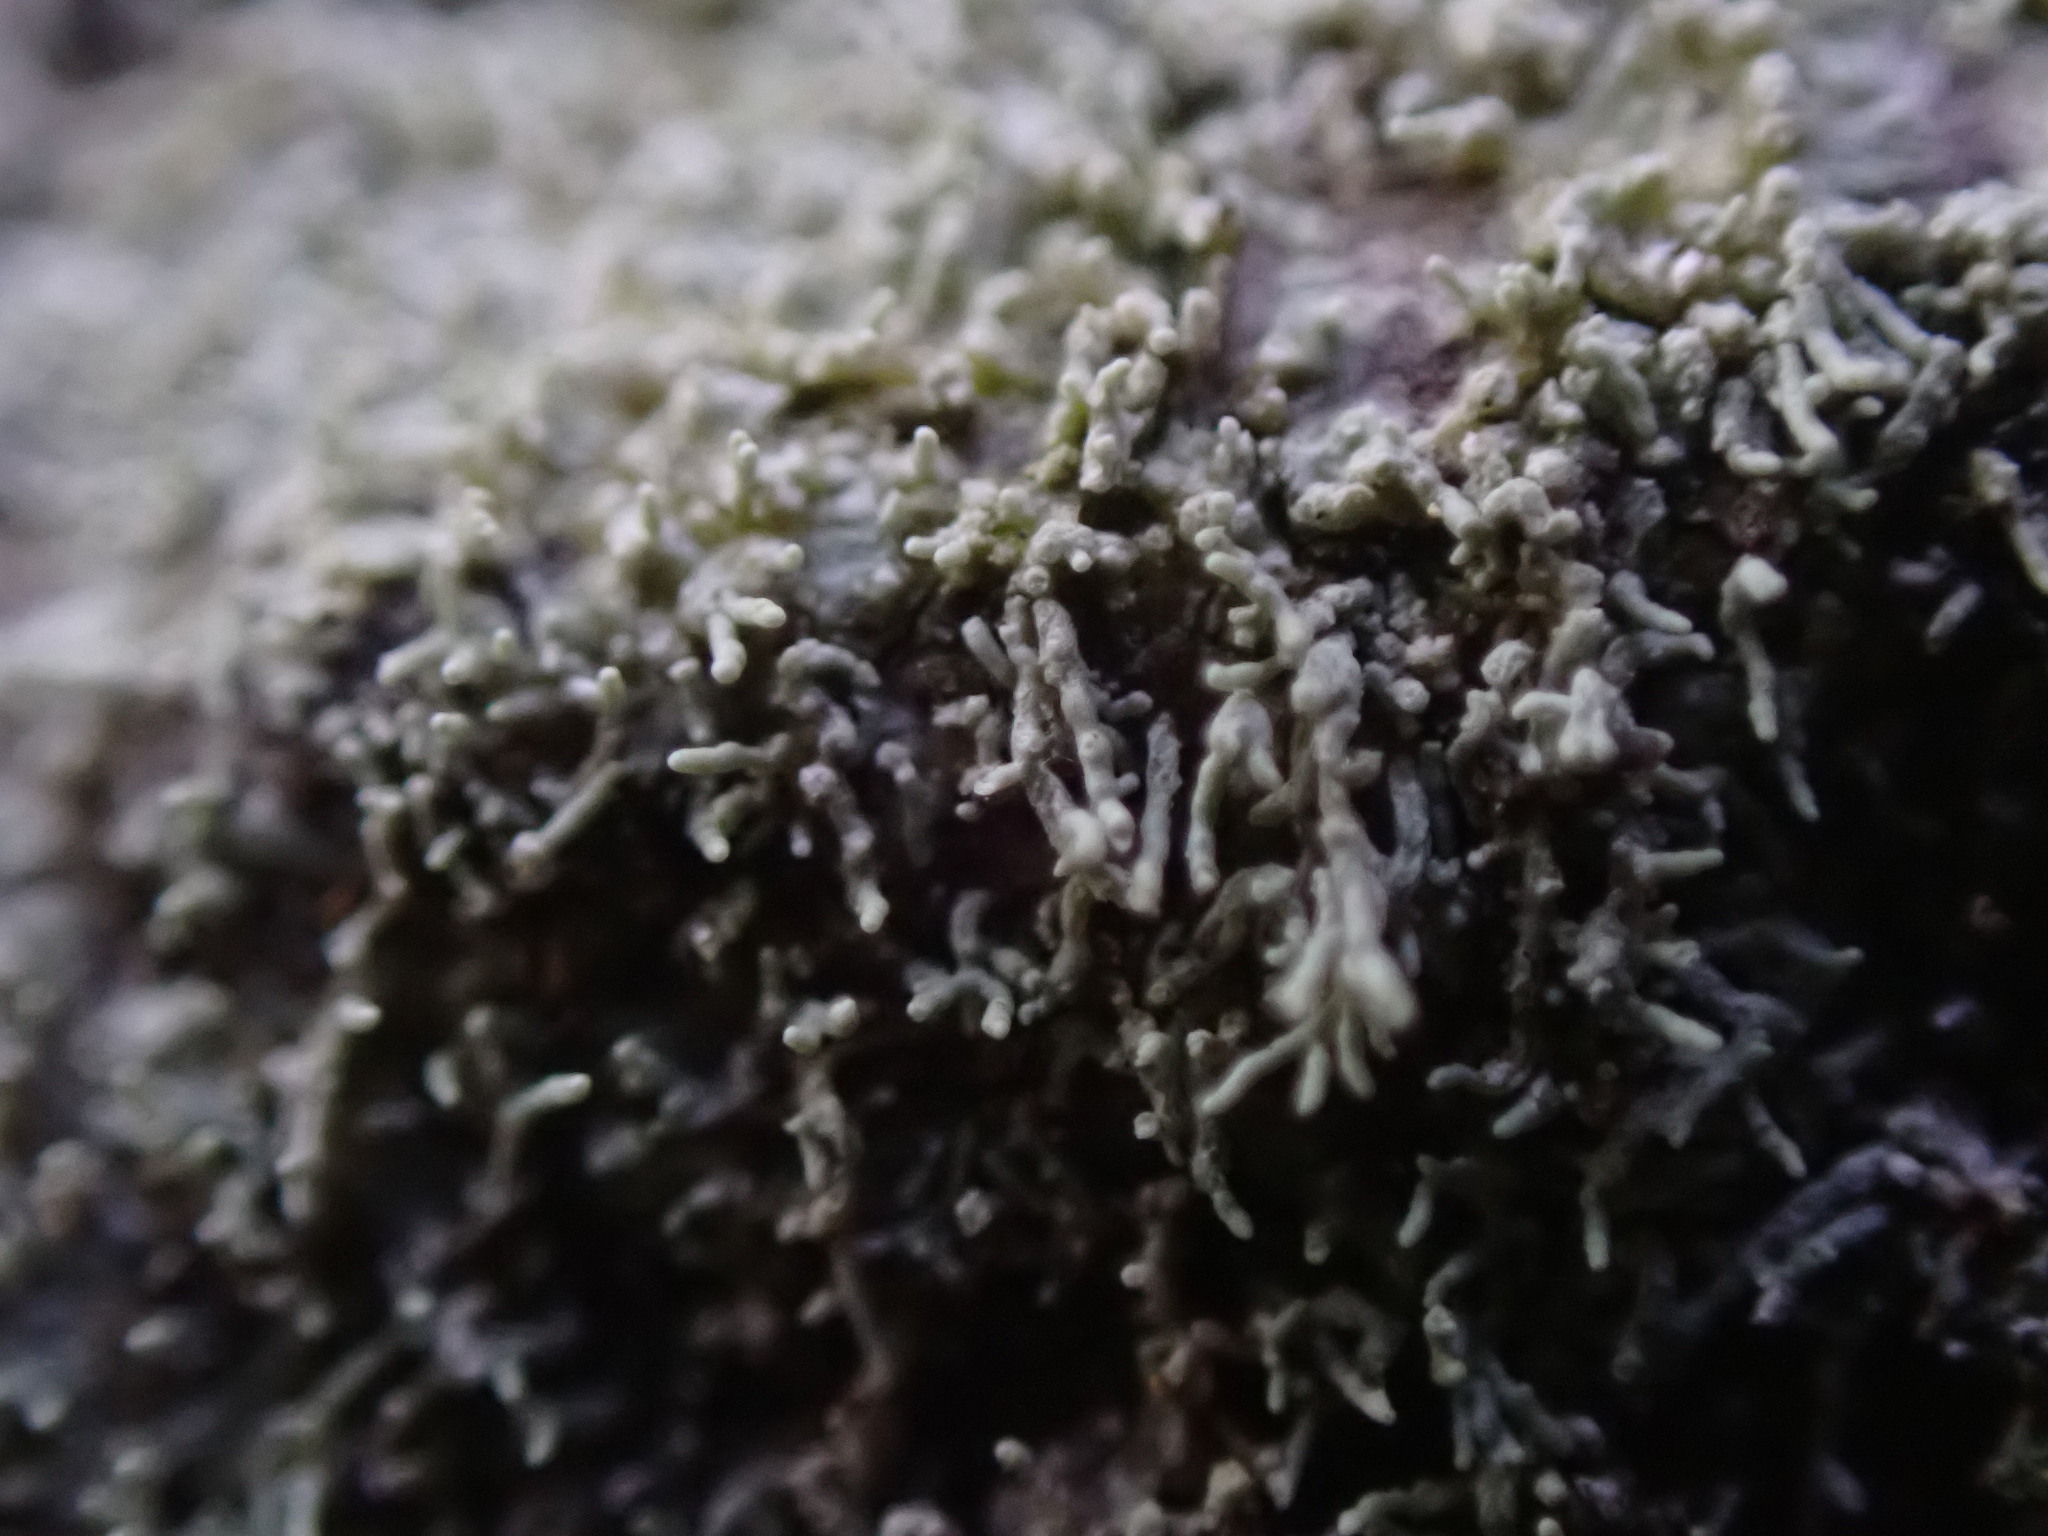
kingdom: Fungi
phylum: Ascomycota
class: Lecanoromycetes
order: Pertusariales
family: Pertusariaceae
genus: Loxosporopsis
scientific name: Loxosporopsis corallifera
